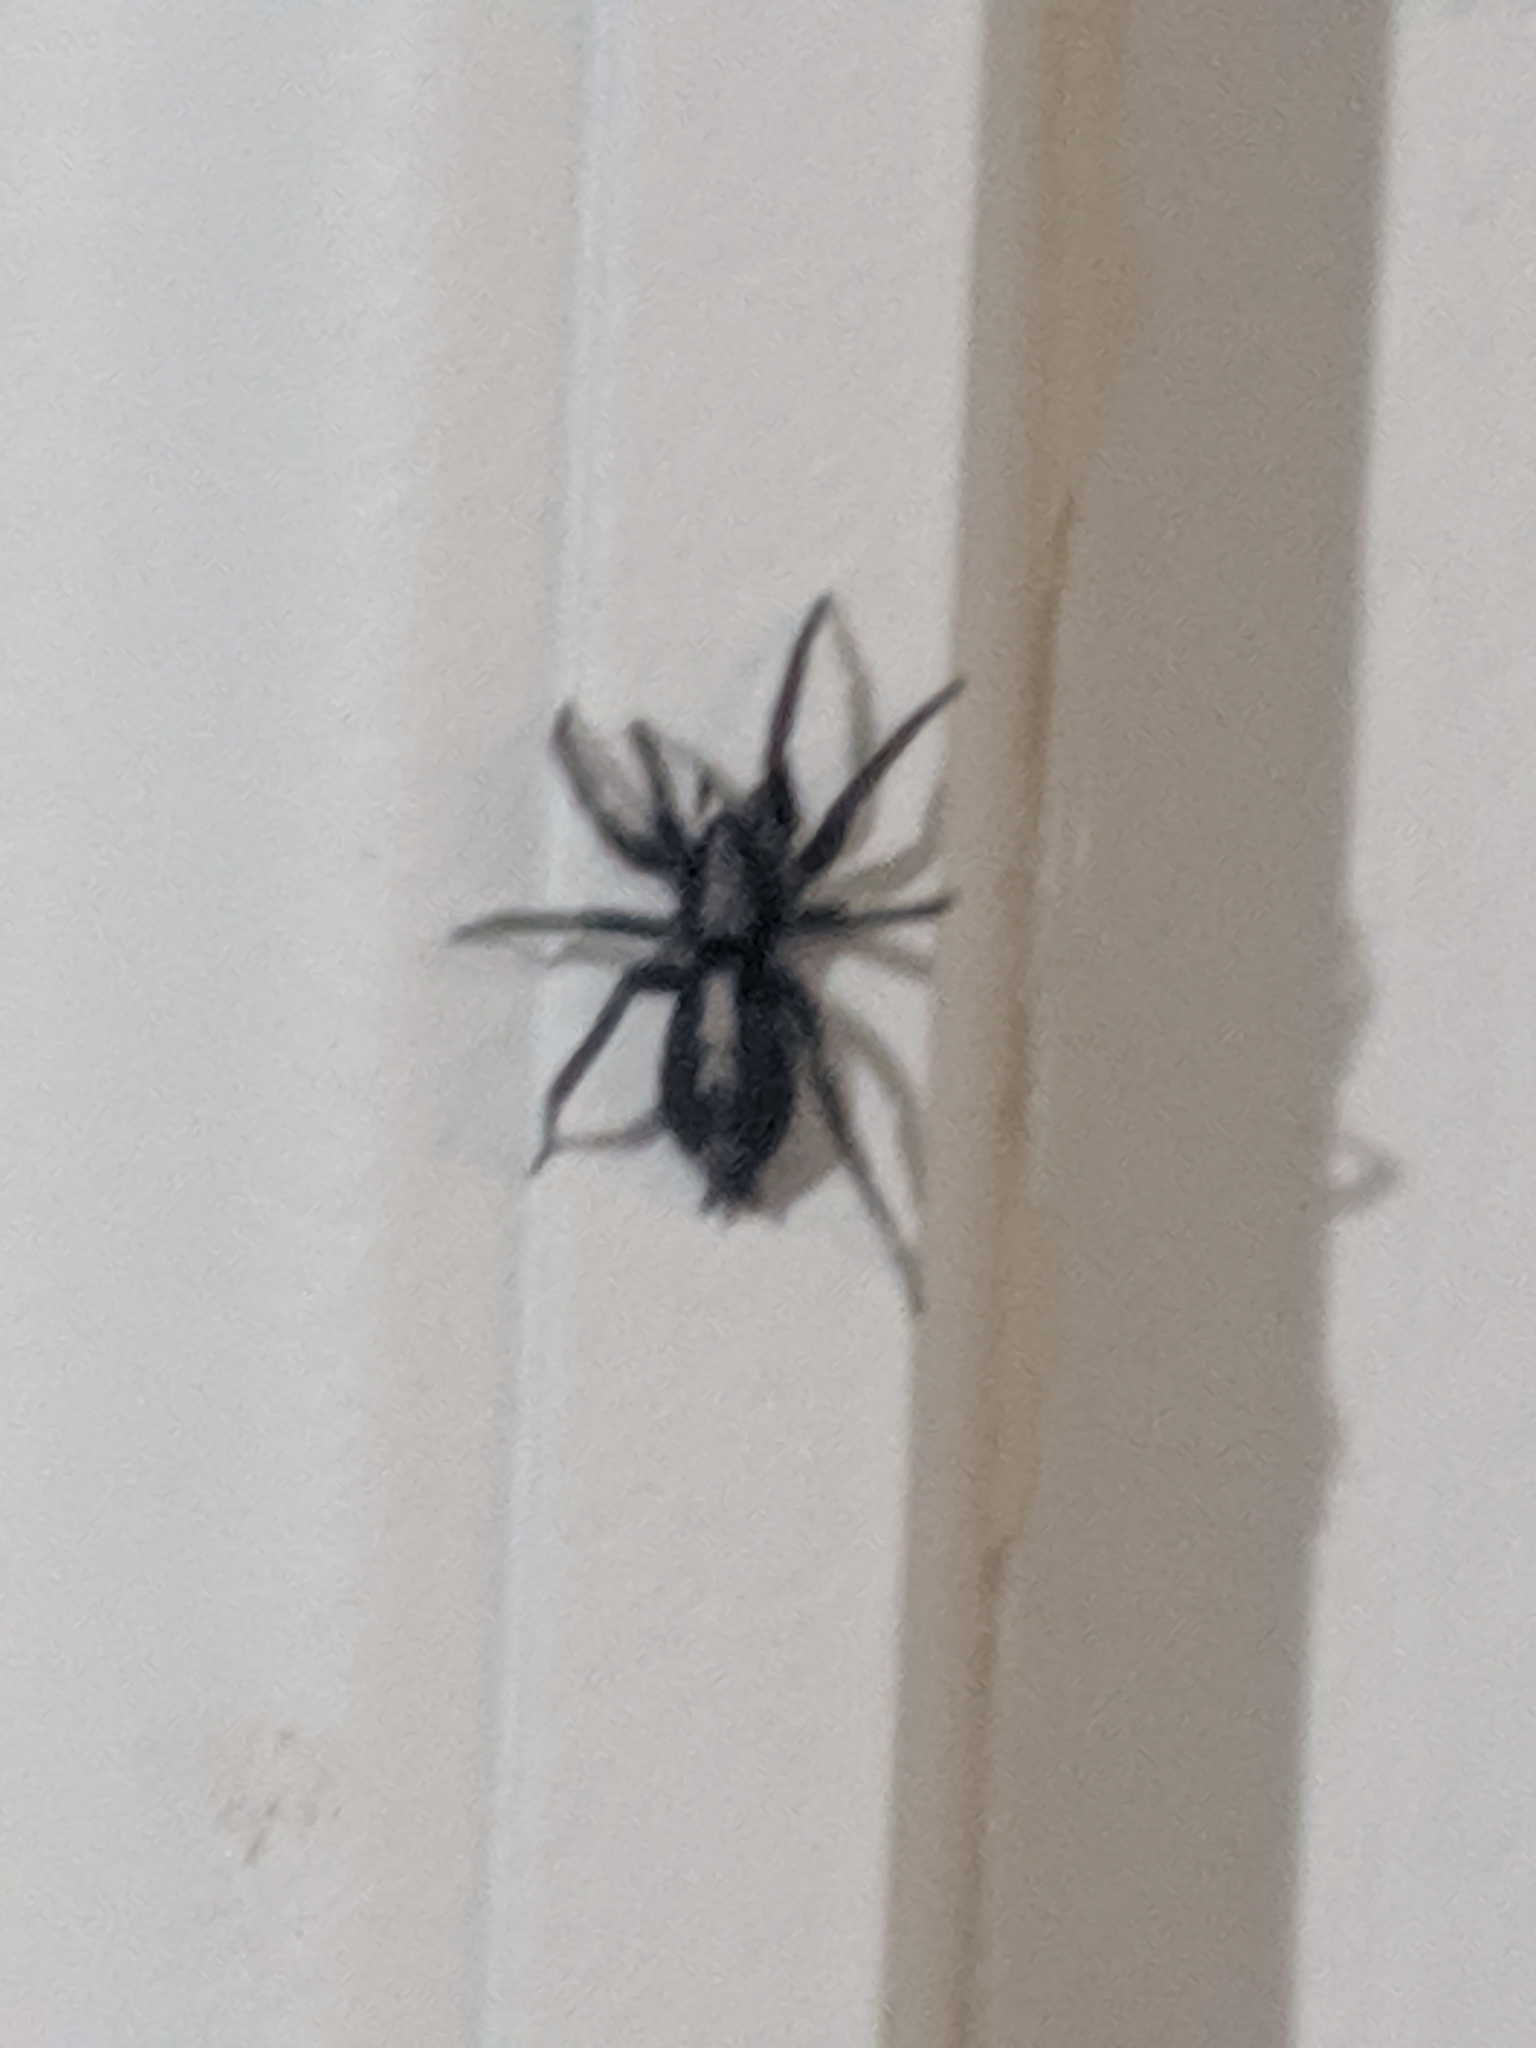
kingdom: Animalia
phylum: Arthropoda
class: Arachnida
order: Araneae
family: Gnaphosidae
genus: Herpyllus
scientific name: Herpyllus ecclesiasticus
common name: Eastern parson spider
